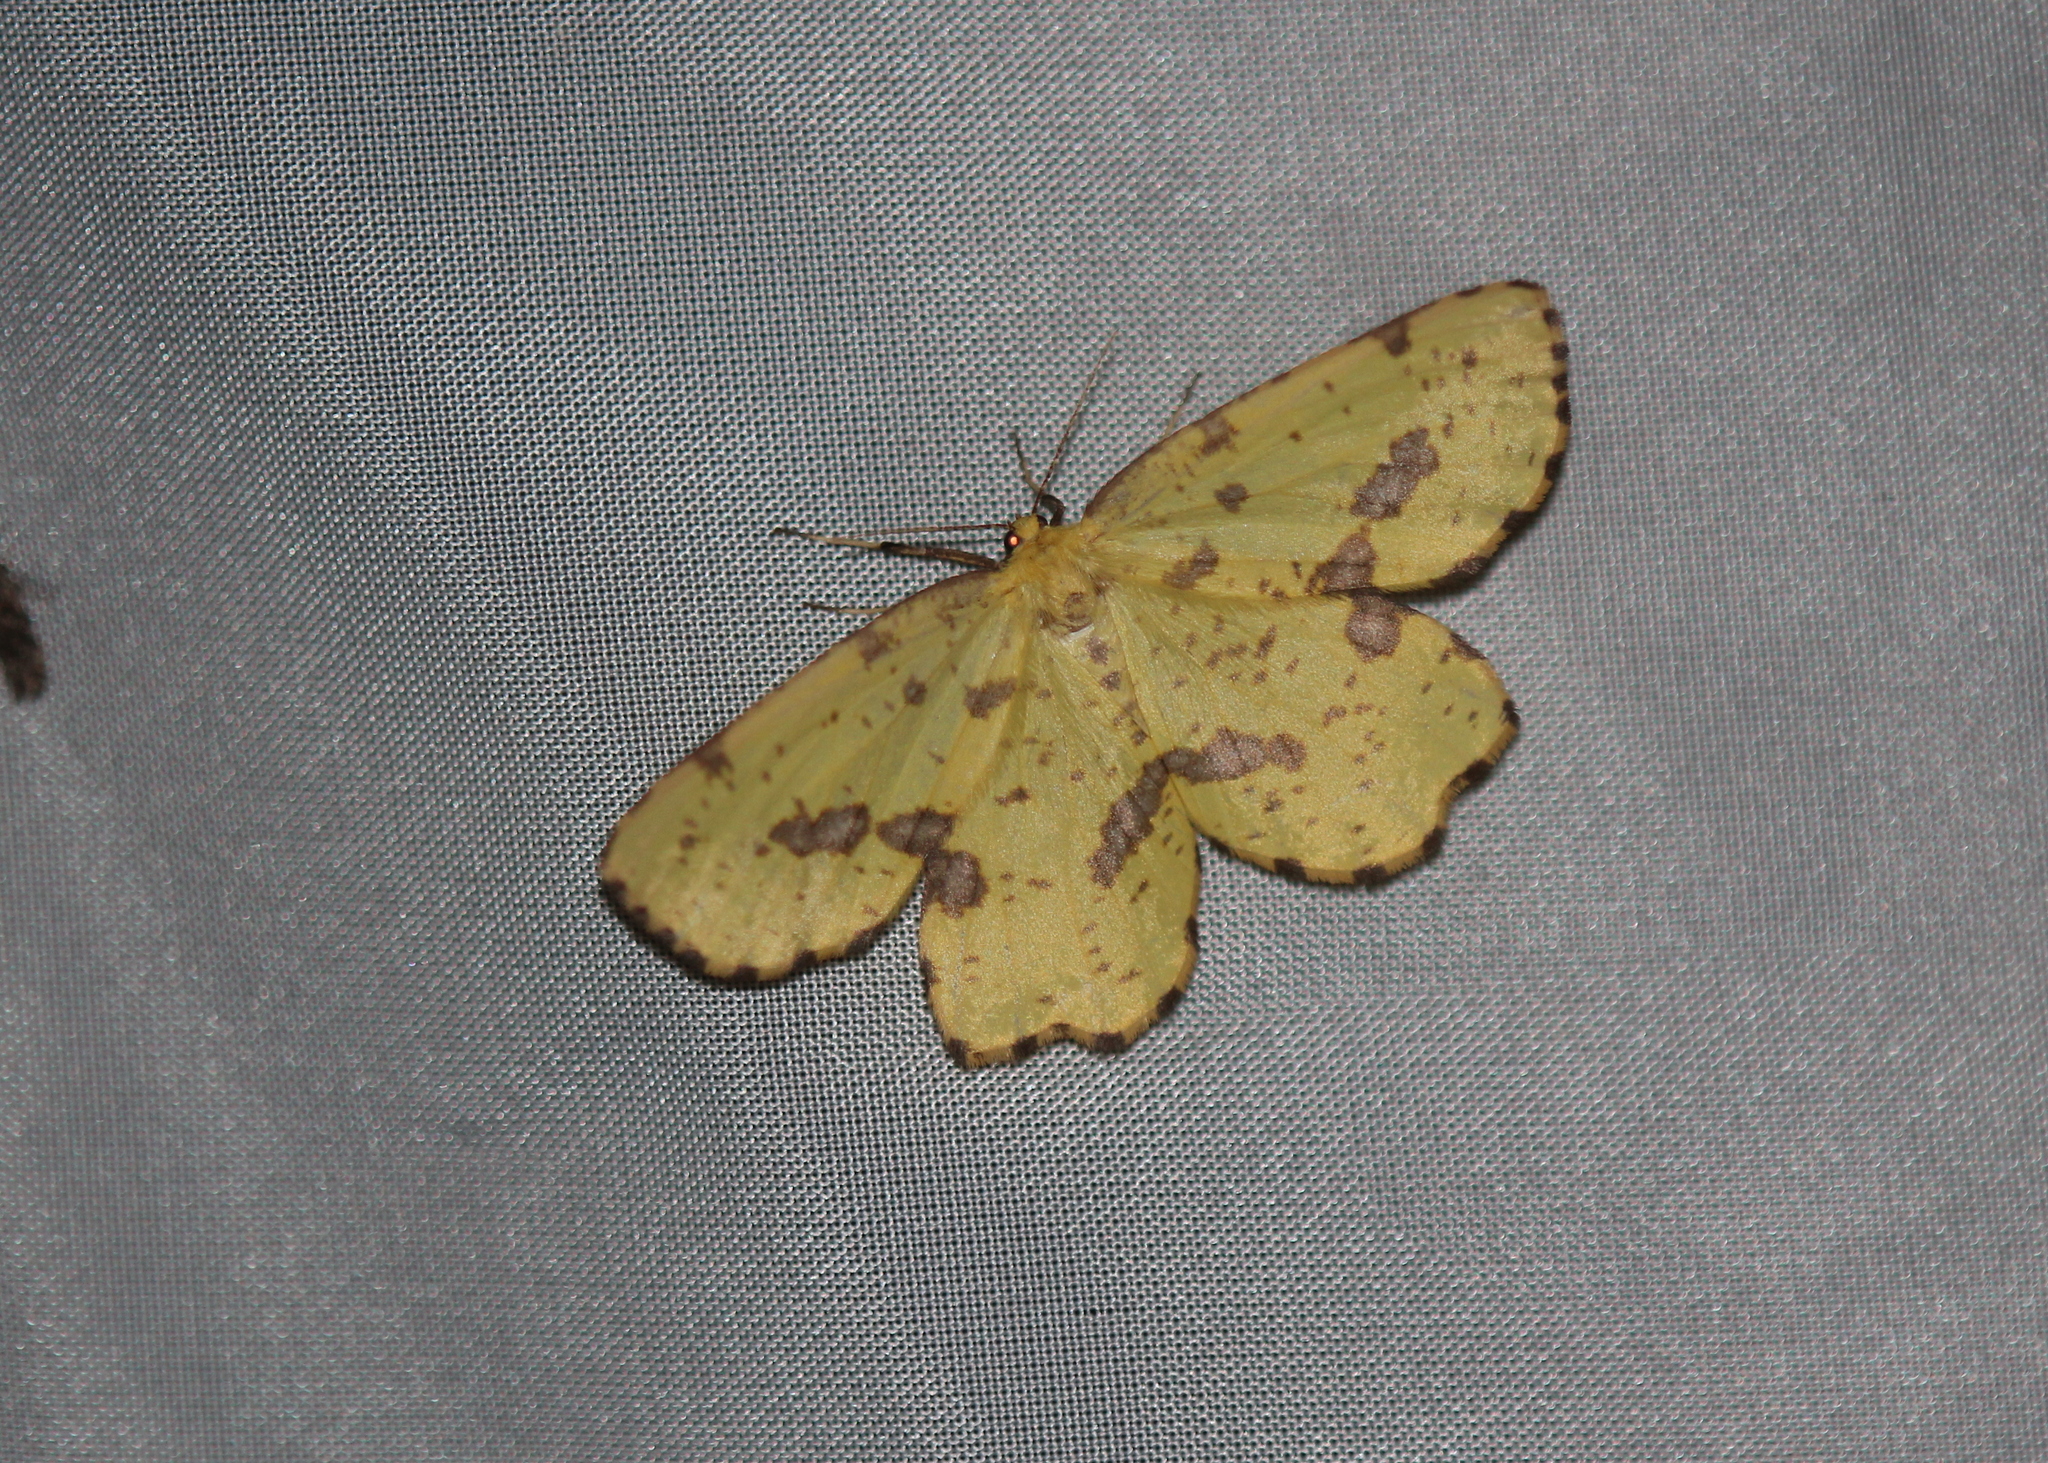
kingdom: Animalia
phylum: Arthropoda
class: Insecta
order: Lepidoptera
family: Geometridae
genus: Xanthotype
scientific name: Xanthotype
